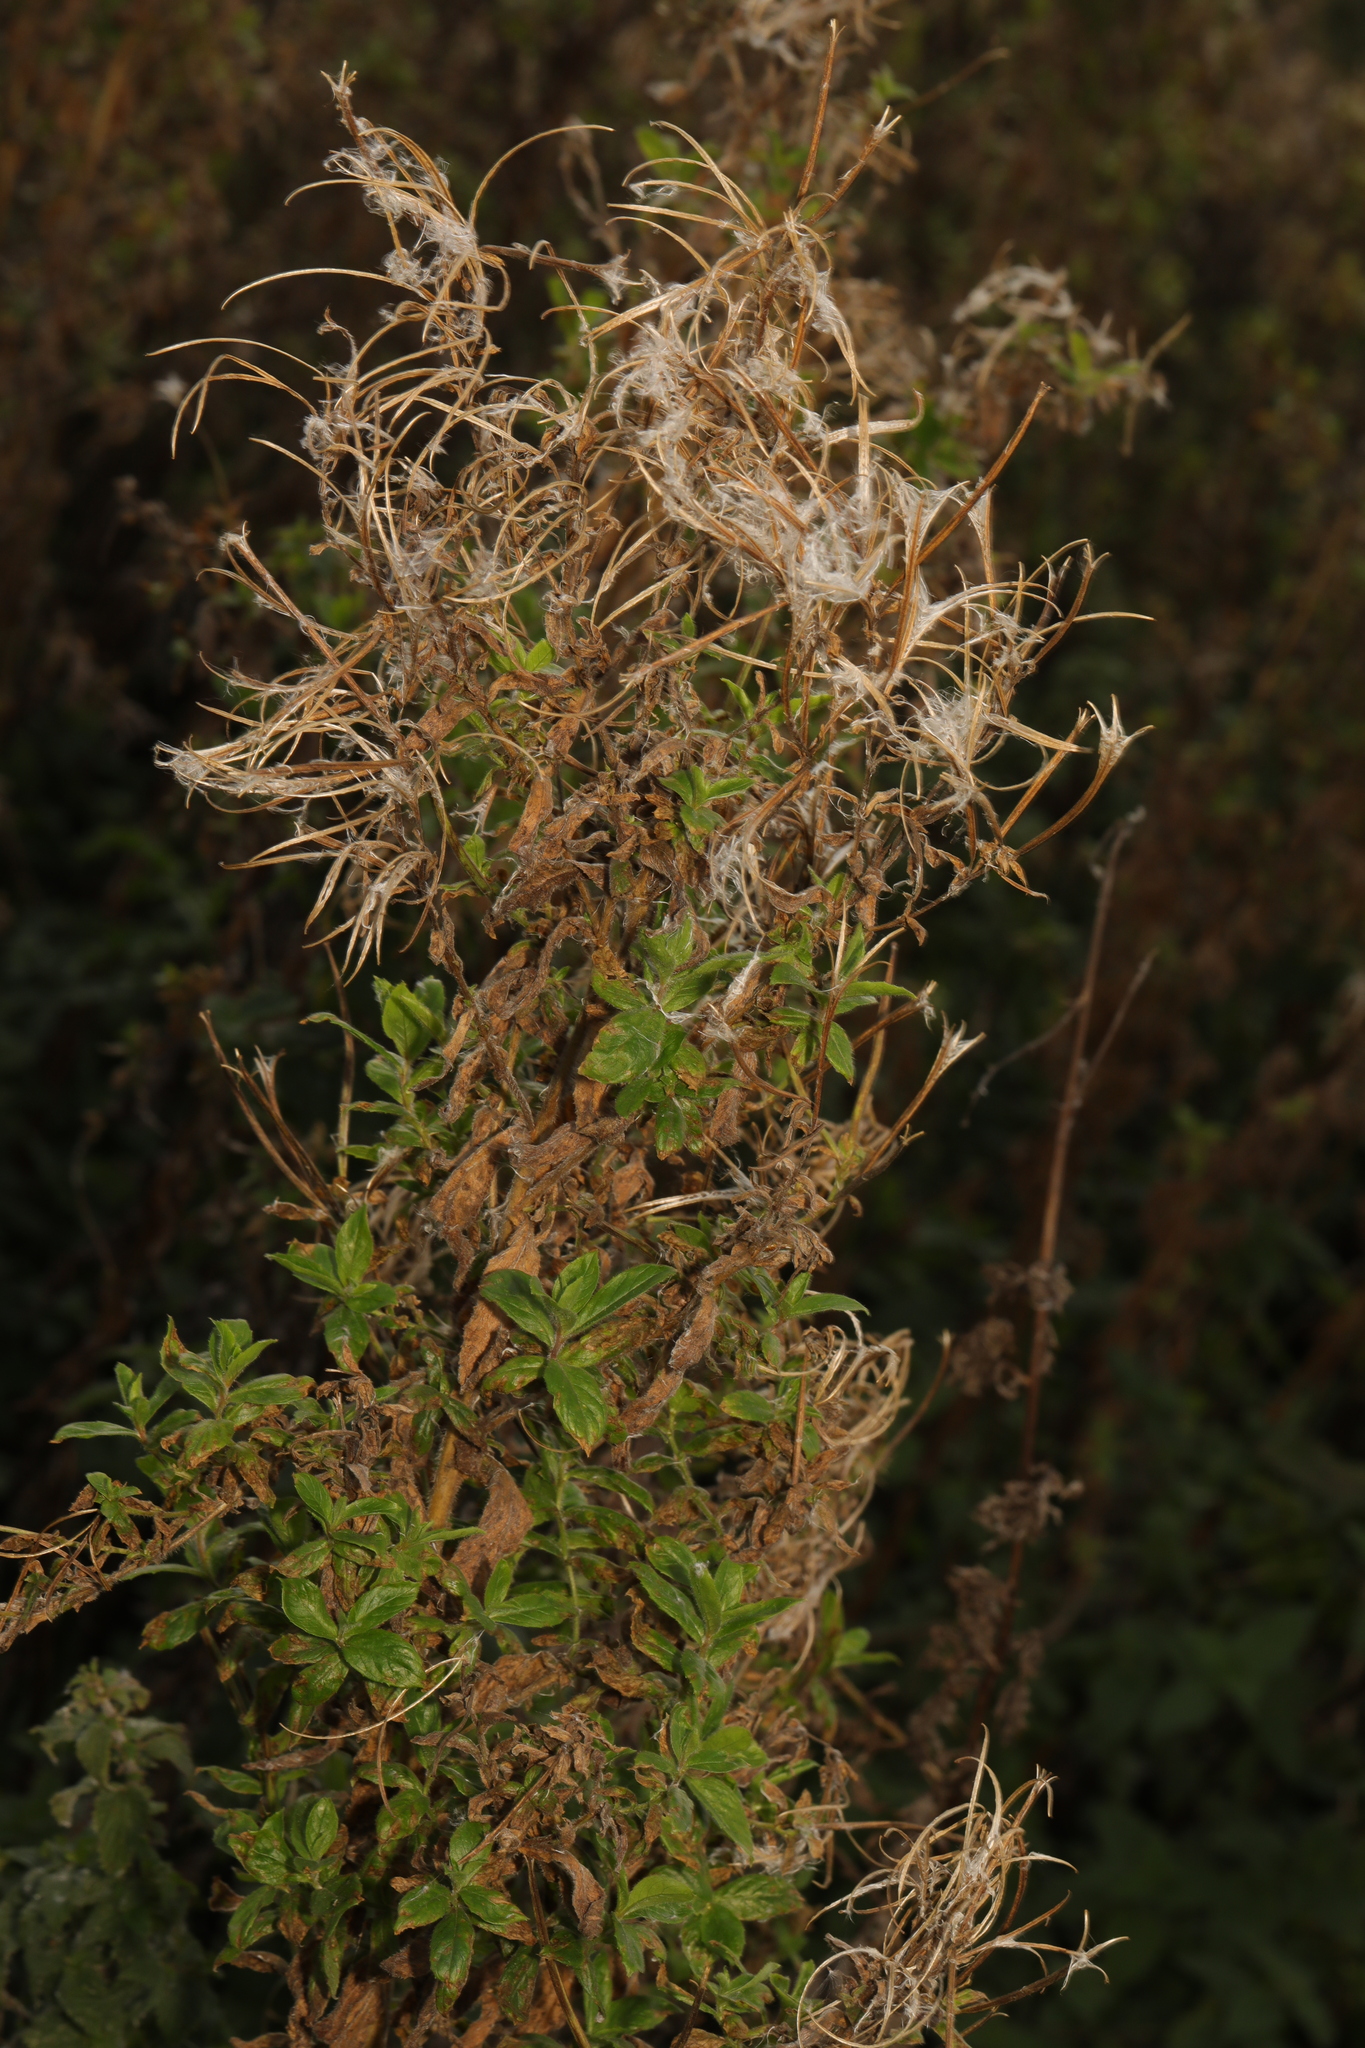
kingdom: Plantae
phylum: Tracheophyta
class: Magnoliopsida
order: Myrtales
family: Onagraceae
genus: Epilobium
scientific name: Epilobium hirsutum
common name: Great willowherb
